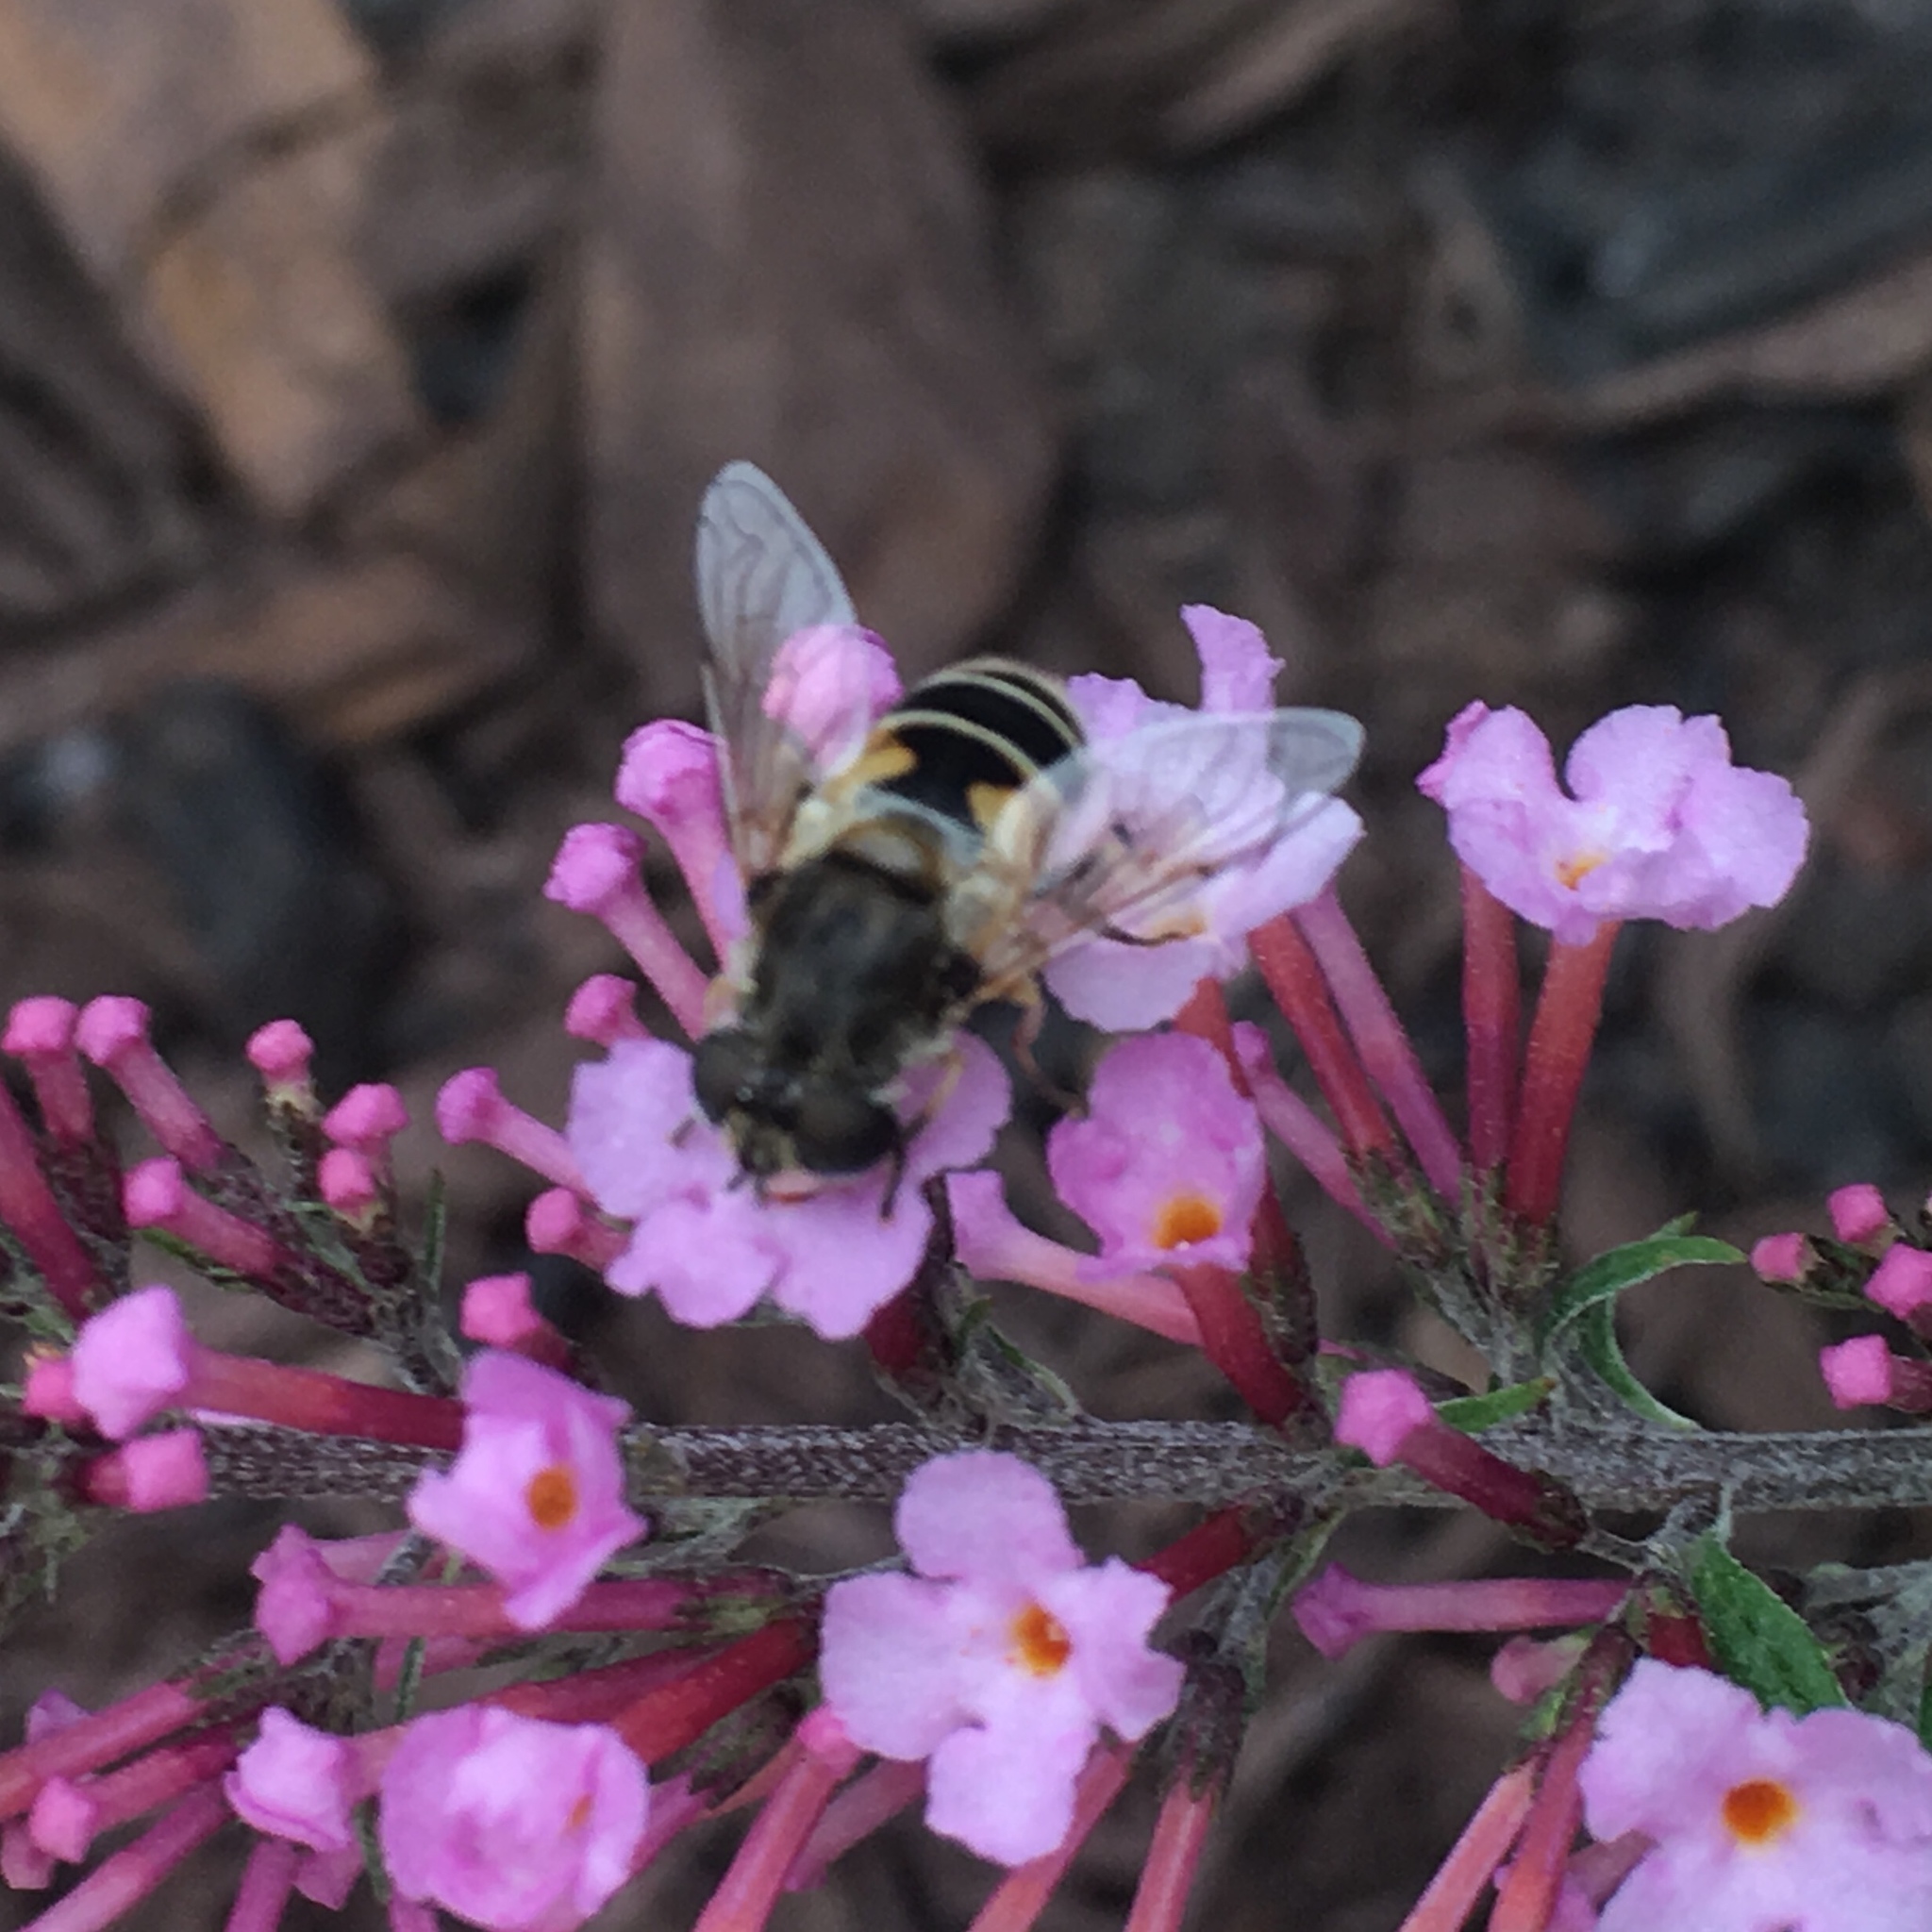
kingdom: Animalia
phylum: Arthropoda
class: Insecta
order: Diptera
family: Syrphidae
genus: Eristalis
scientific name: Eristalis arbustorum
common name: Hover fly
